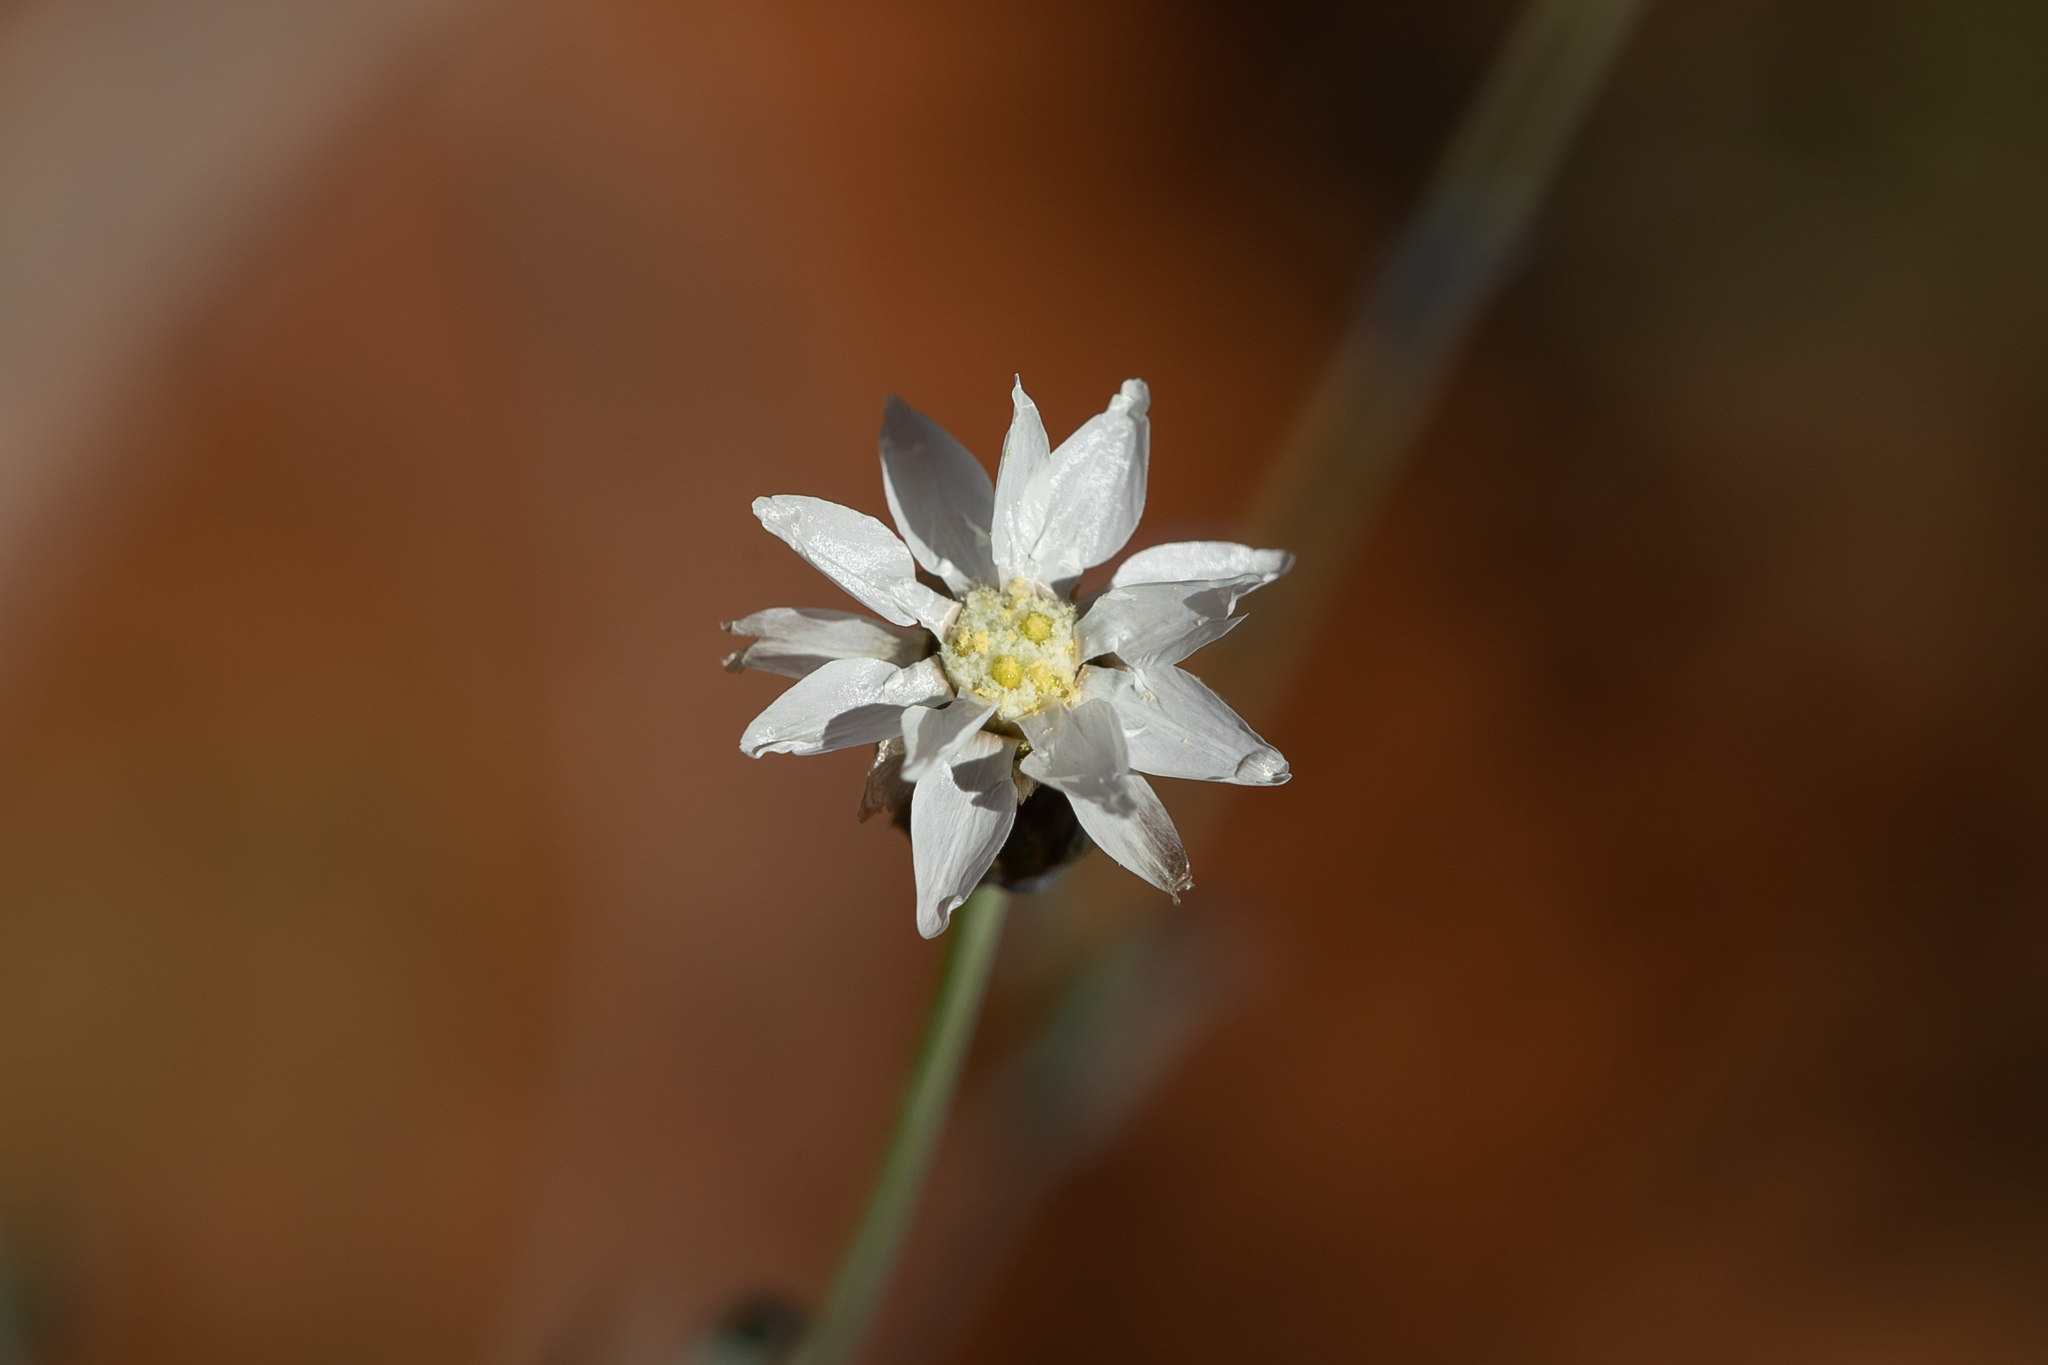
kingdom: Plantae
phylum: Tracheophyta
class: Magnoliopsida
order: Asterales
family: Asteraceae
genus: Rhodanthe
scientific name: Rhodanthe stricta
